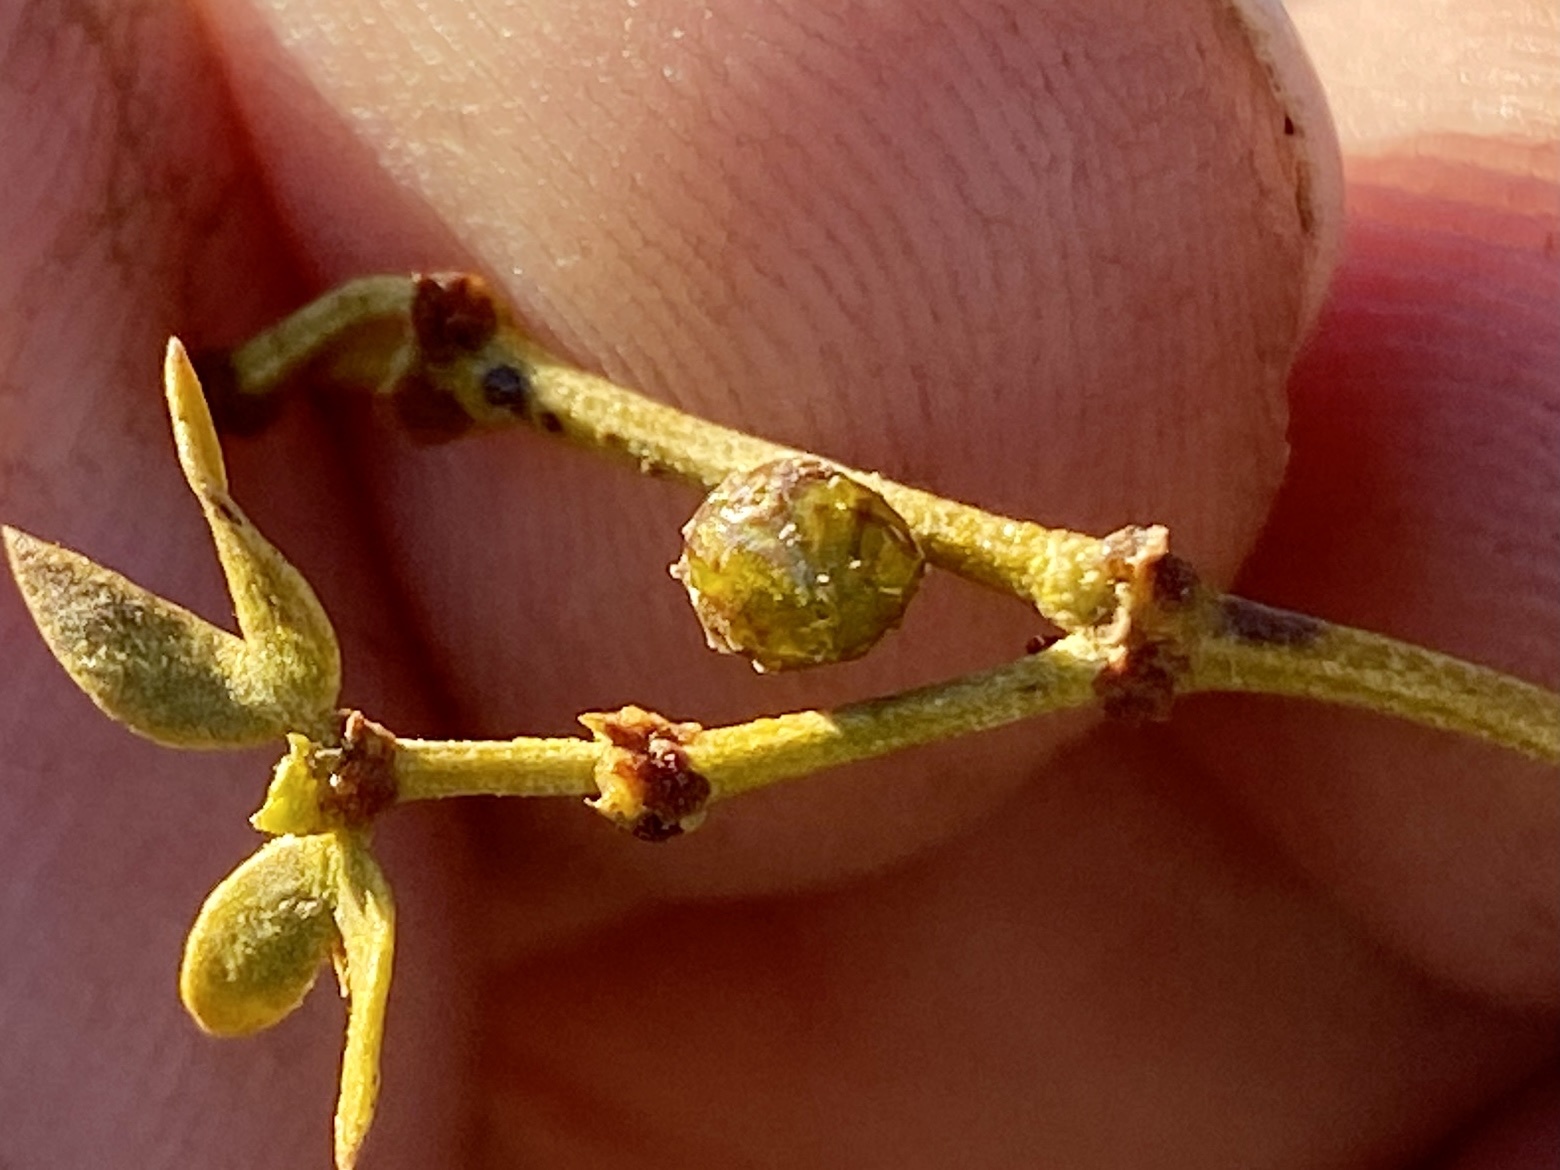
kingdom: Animalia
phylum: Arthropoda
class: Insecta
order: Diptera
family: Cecidomyiidae
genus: Asphondylia
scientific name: Asphondylia resinosa
